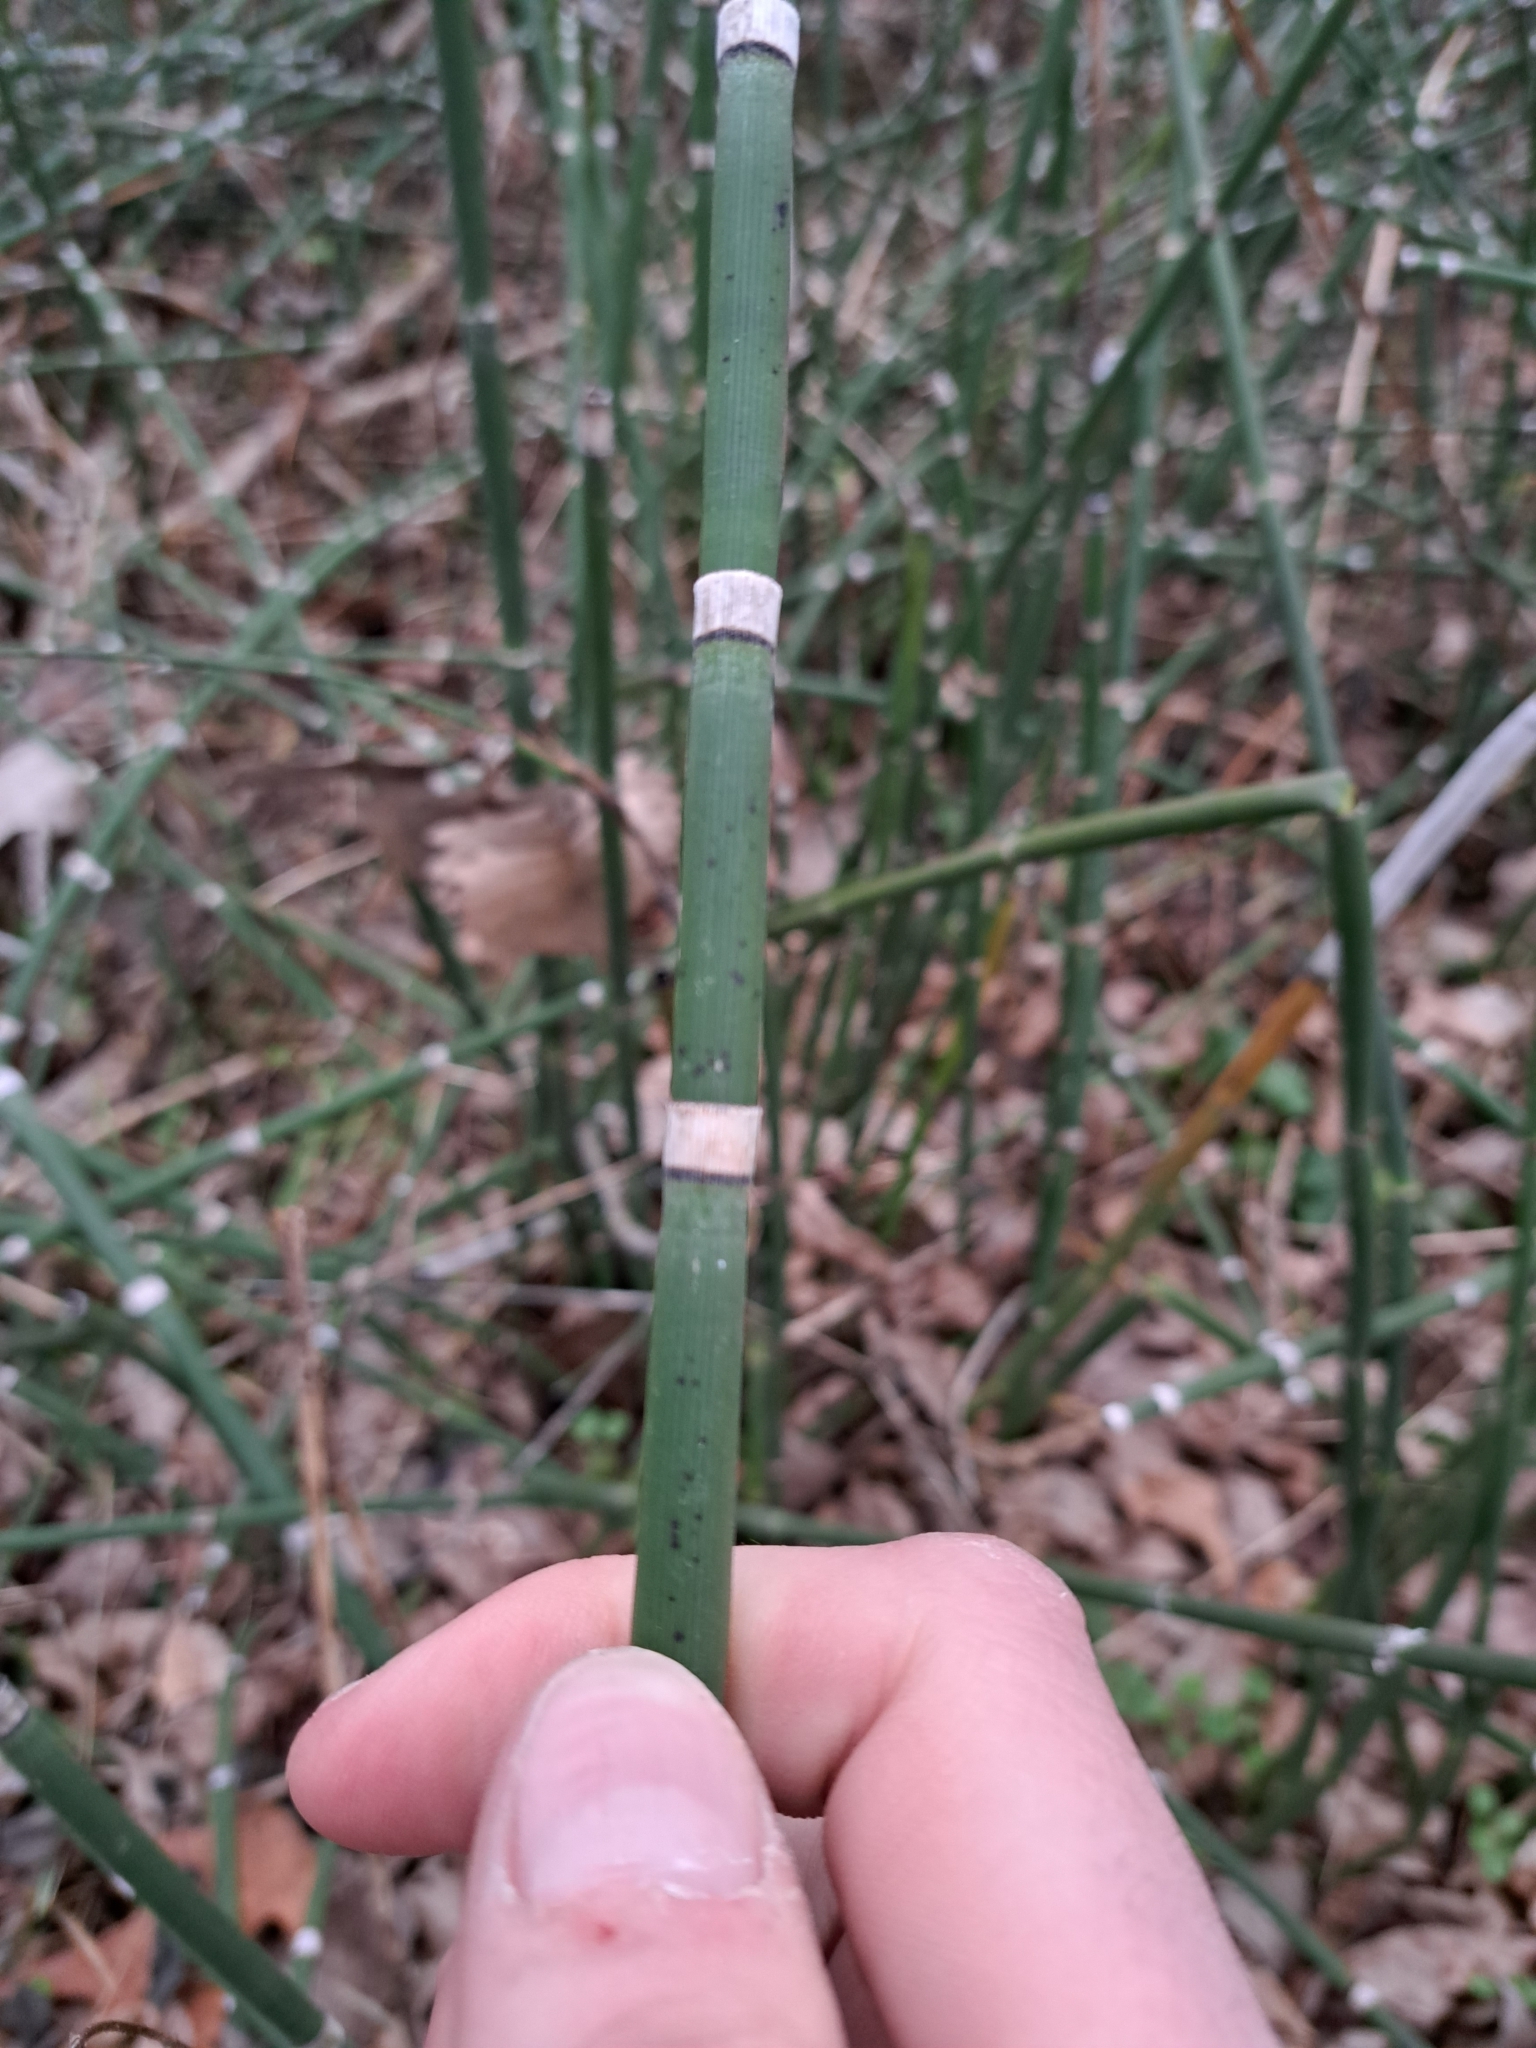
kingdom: Plantae
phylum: Tracheophyta
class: Polypodiopsida
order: Equisetales
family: Equisetaceae
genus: Equisetum
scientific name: Equisetum hyemale
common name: Rough horsetail
